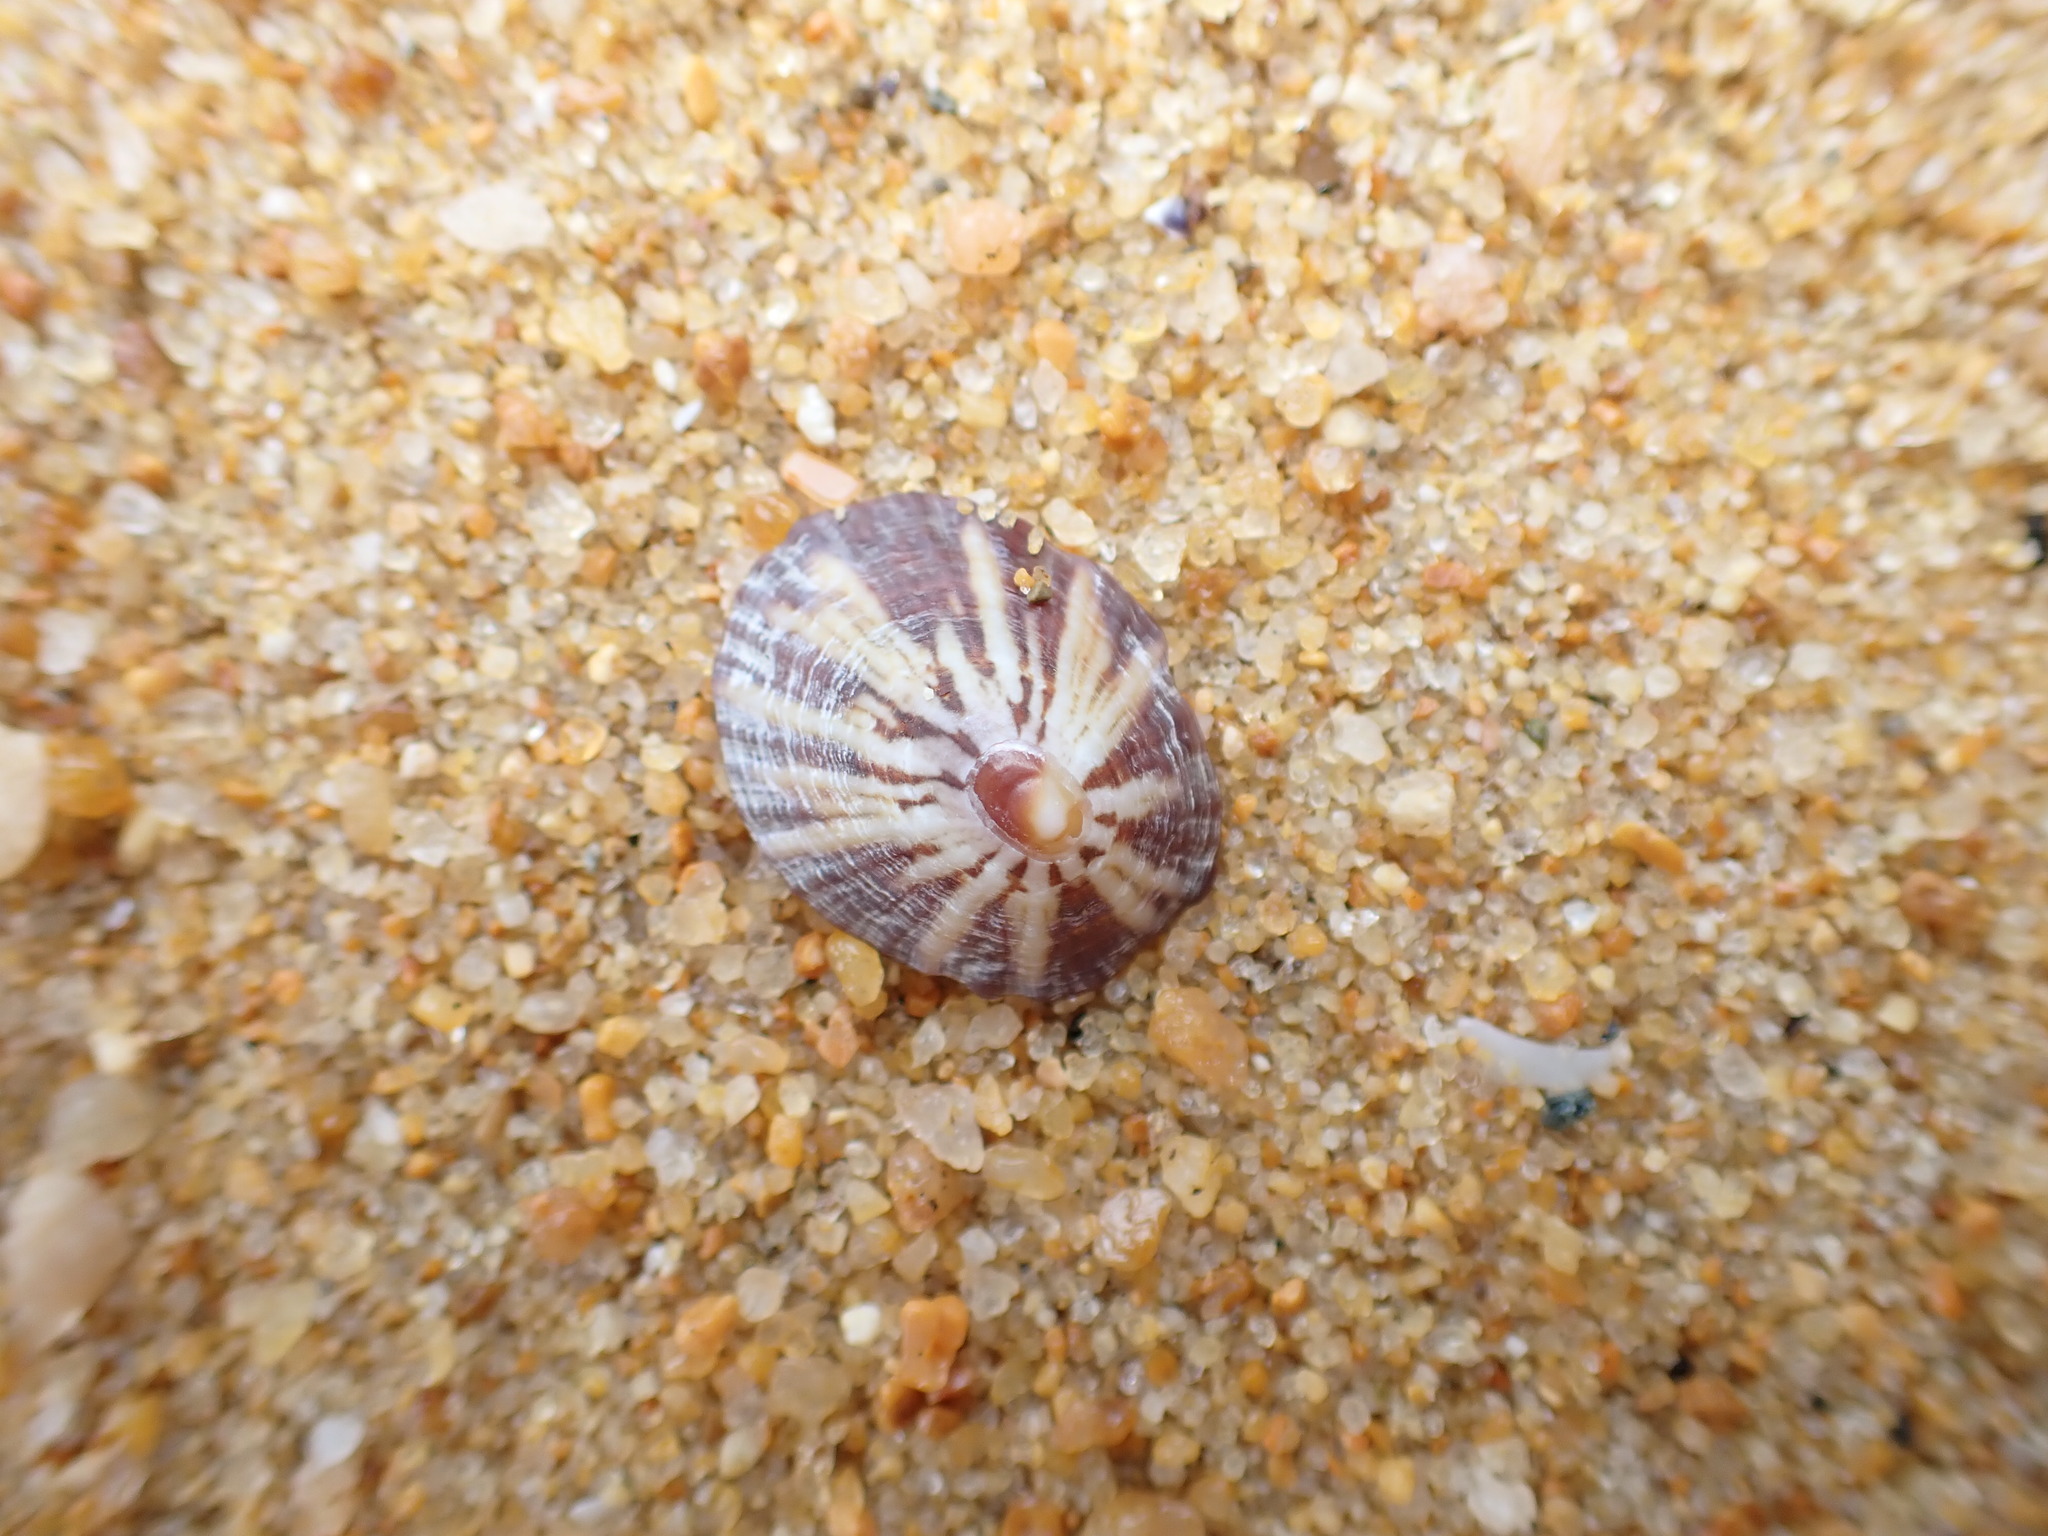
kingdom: Animalia
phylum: Mollusca
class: Gastropoda
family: Nacellidae
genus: Cellana
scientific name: Cellana stellifera
